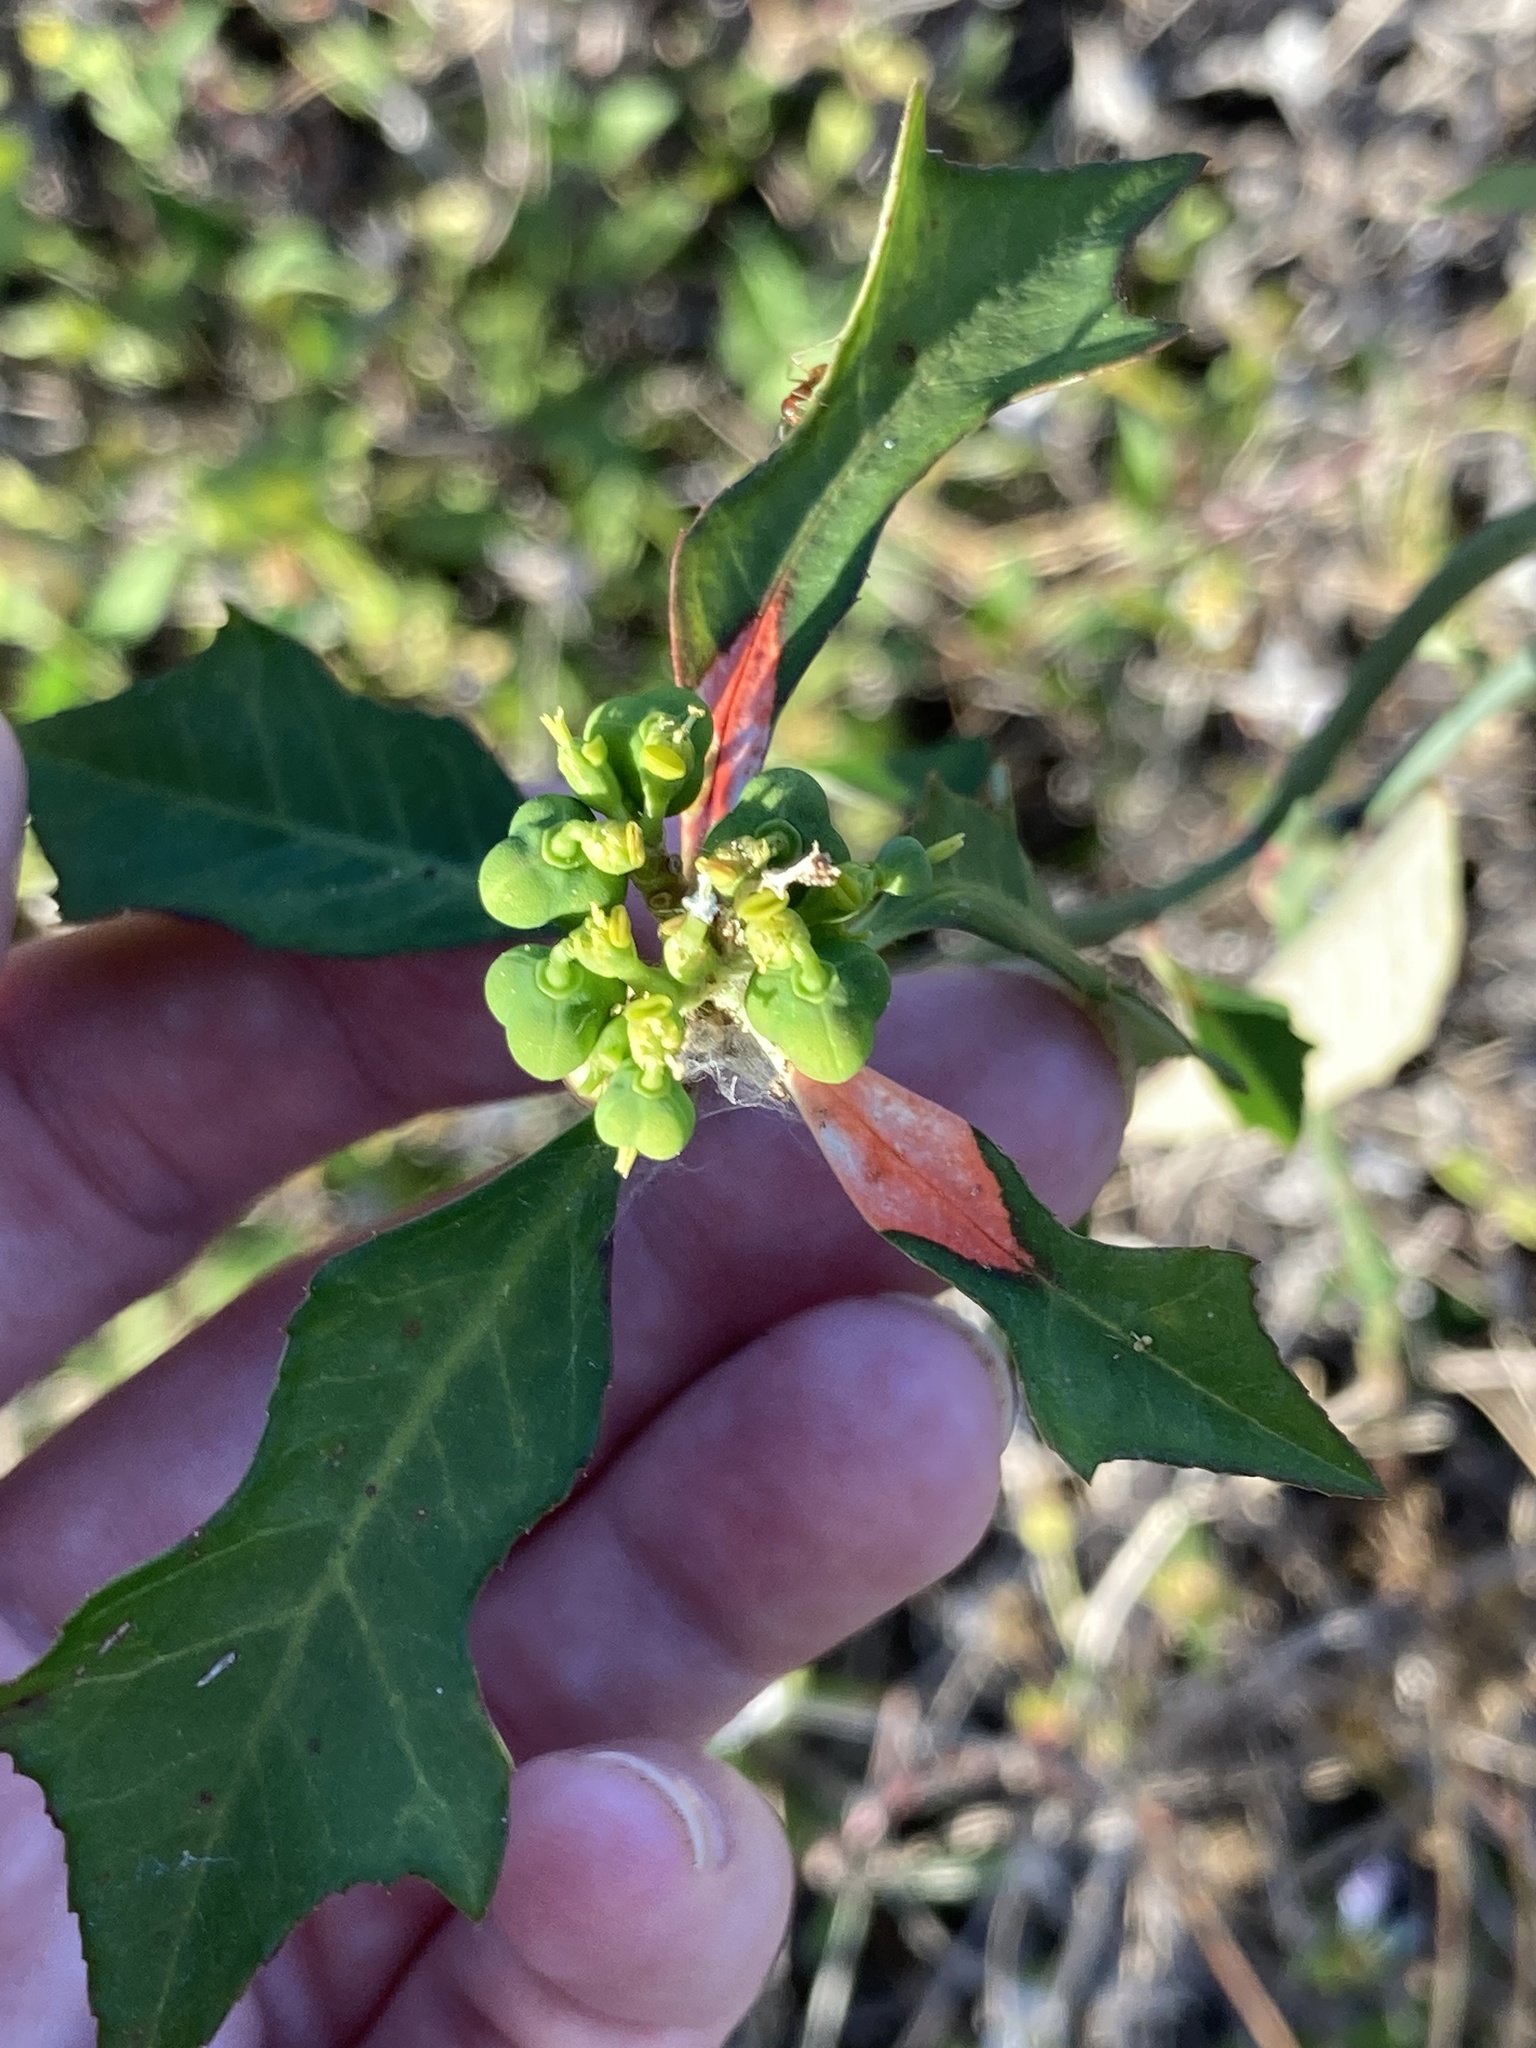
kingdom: Plantae
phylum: Tracheophyta
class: Magnoliopsida
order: Malpighiales
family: Euphorbiaceae
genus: Euphorbia
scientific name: Euphorbia heterophylla
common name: Mexican fireplant
